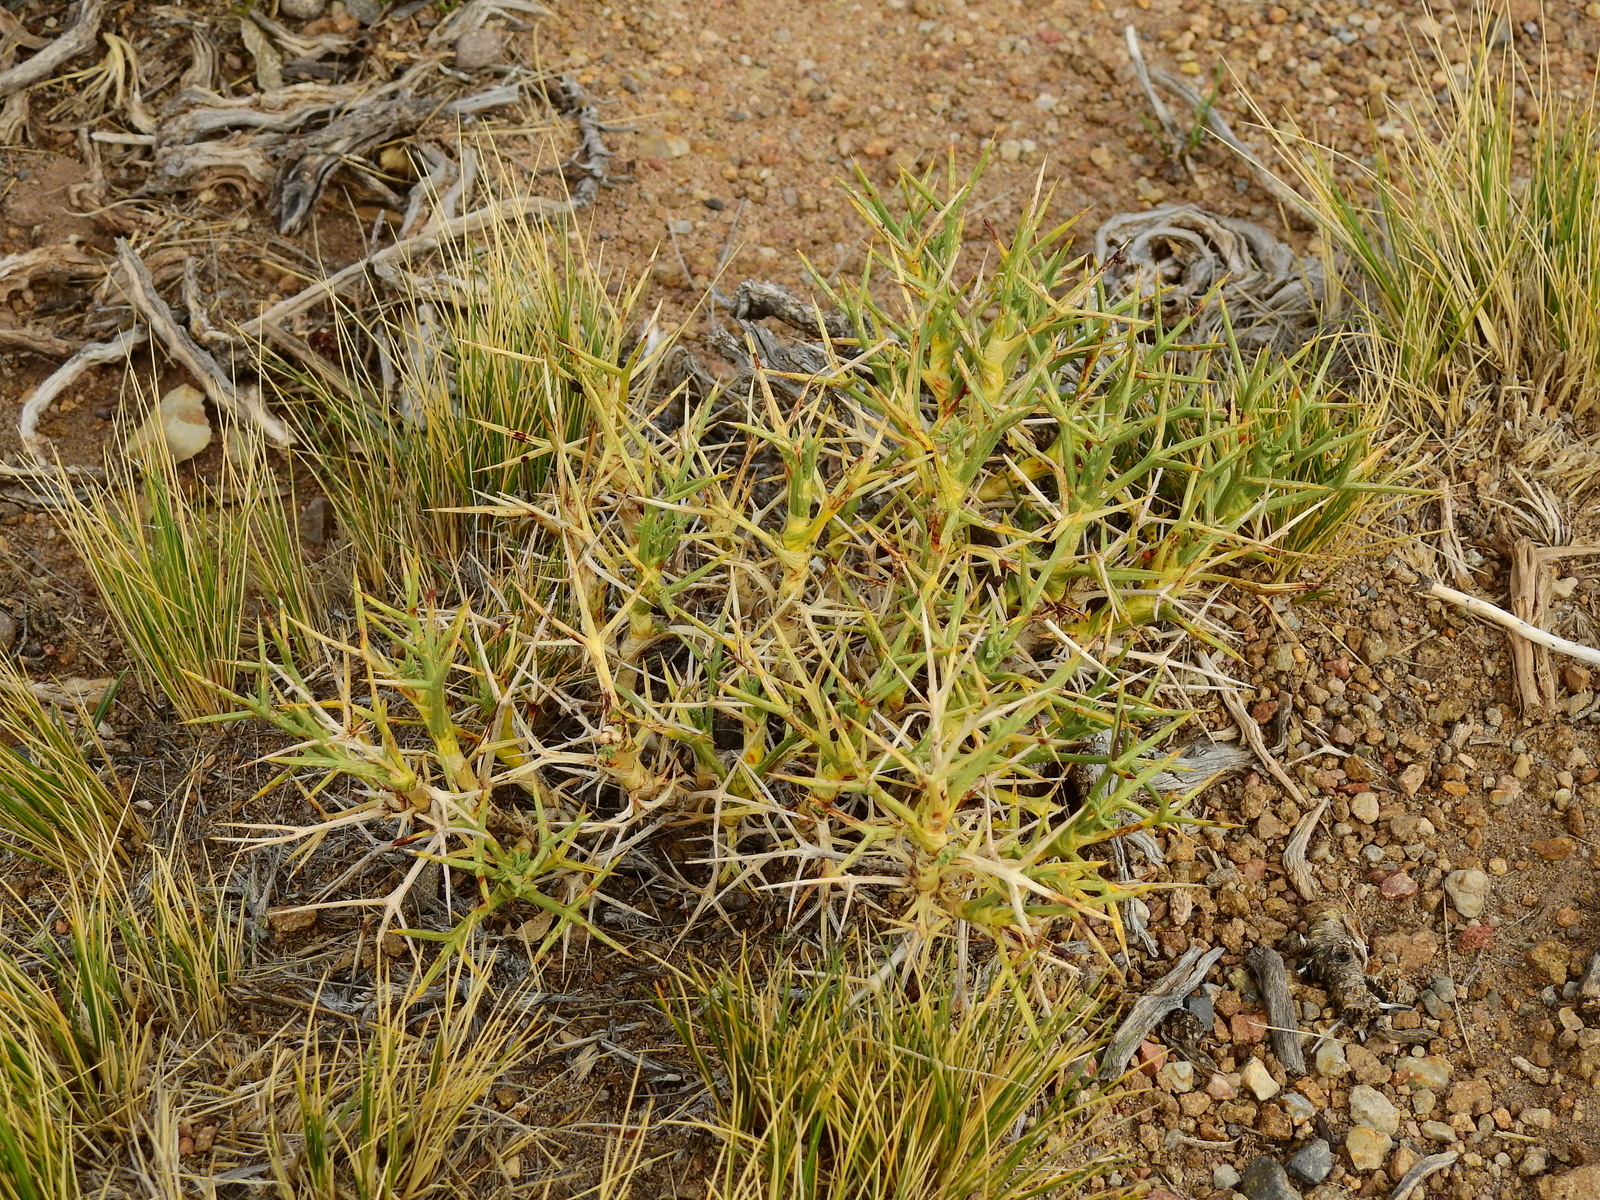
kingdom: Plantae
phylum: Tracheophyta
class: Magnoliopsida
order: Apiales
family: Apiaceae
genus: Azorella
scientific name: Azorella prolifera
